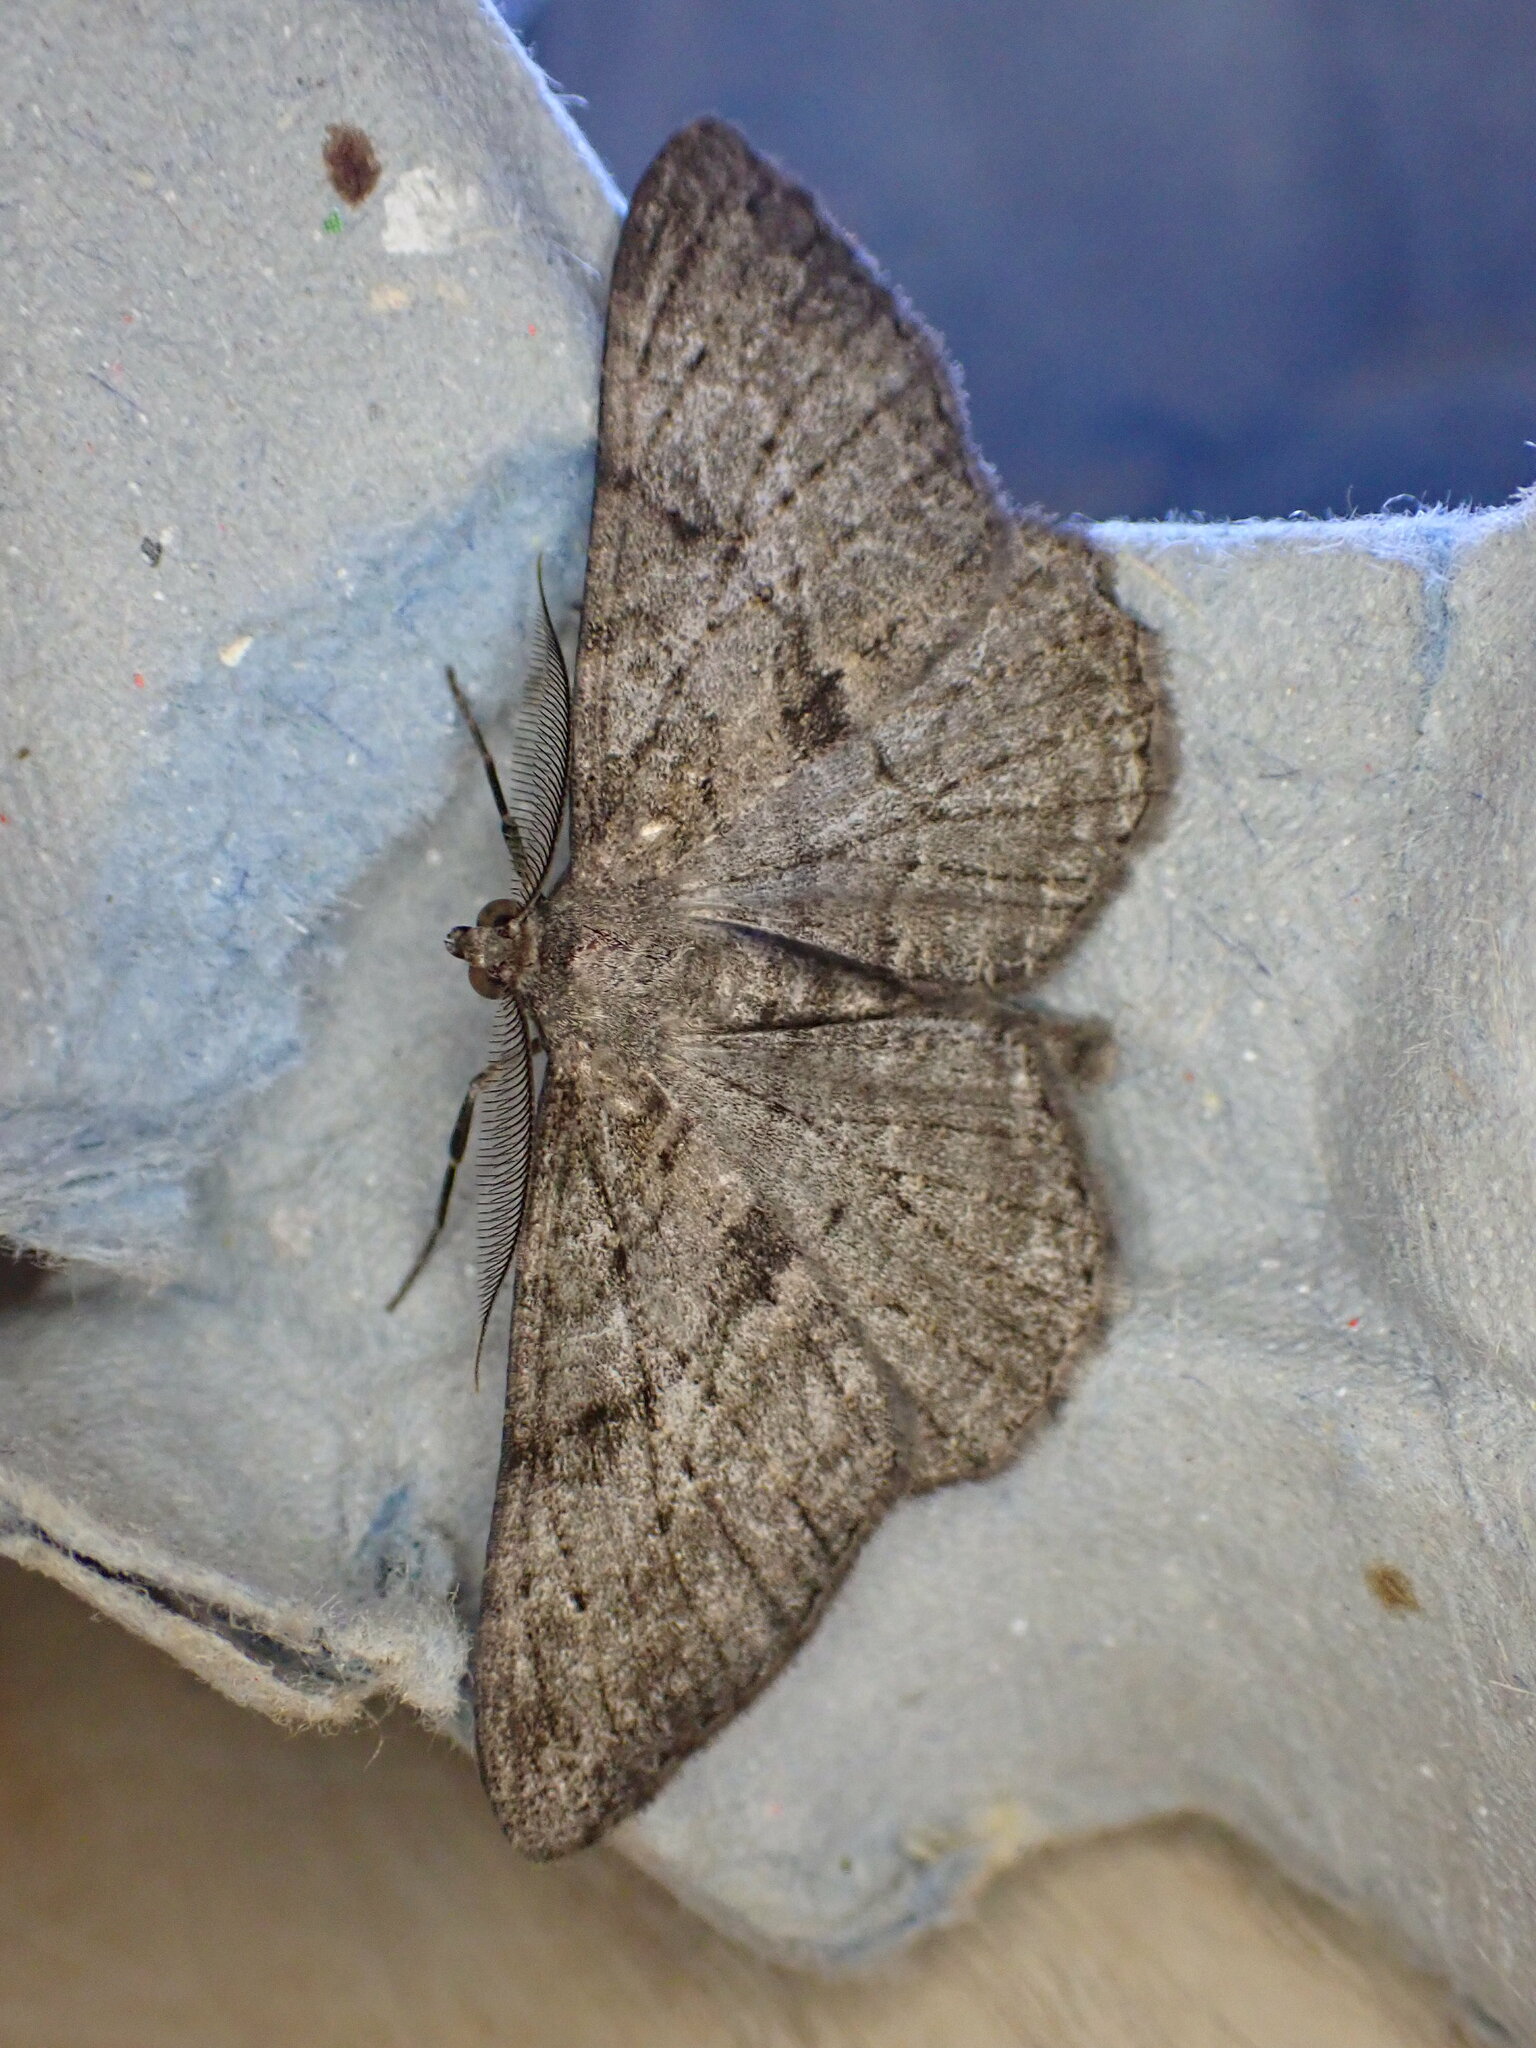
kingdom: Animalia
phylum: Arthropoda
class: Insecta
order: Lepidoptera
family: Geometridae
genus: Peribatodes
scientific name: Peribatodes rhomboidaria
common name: Willow beauty
